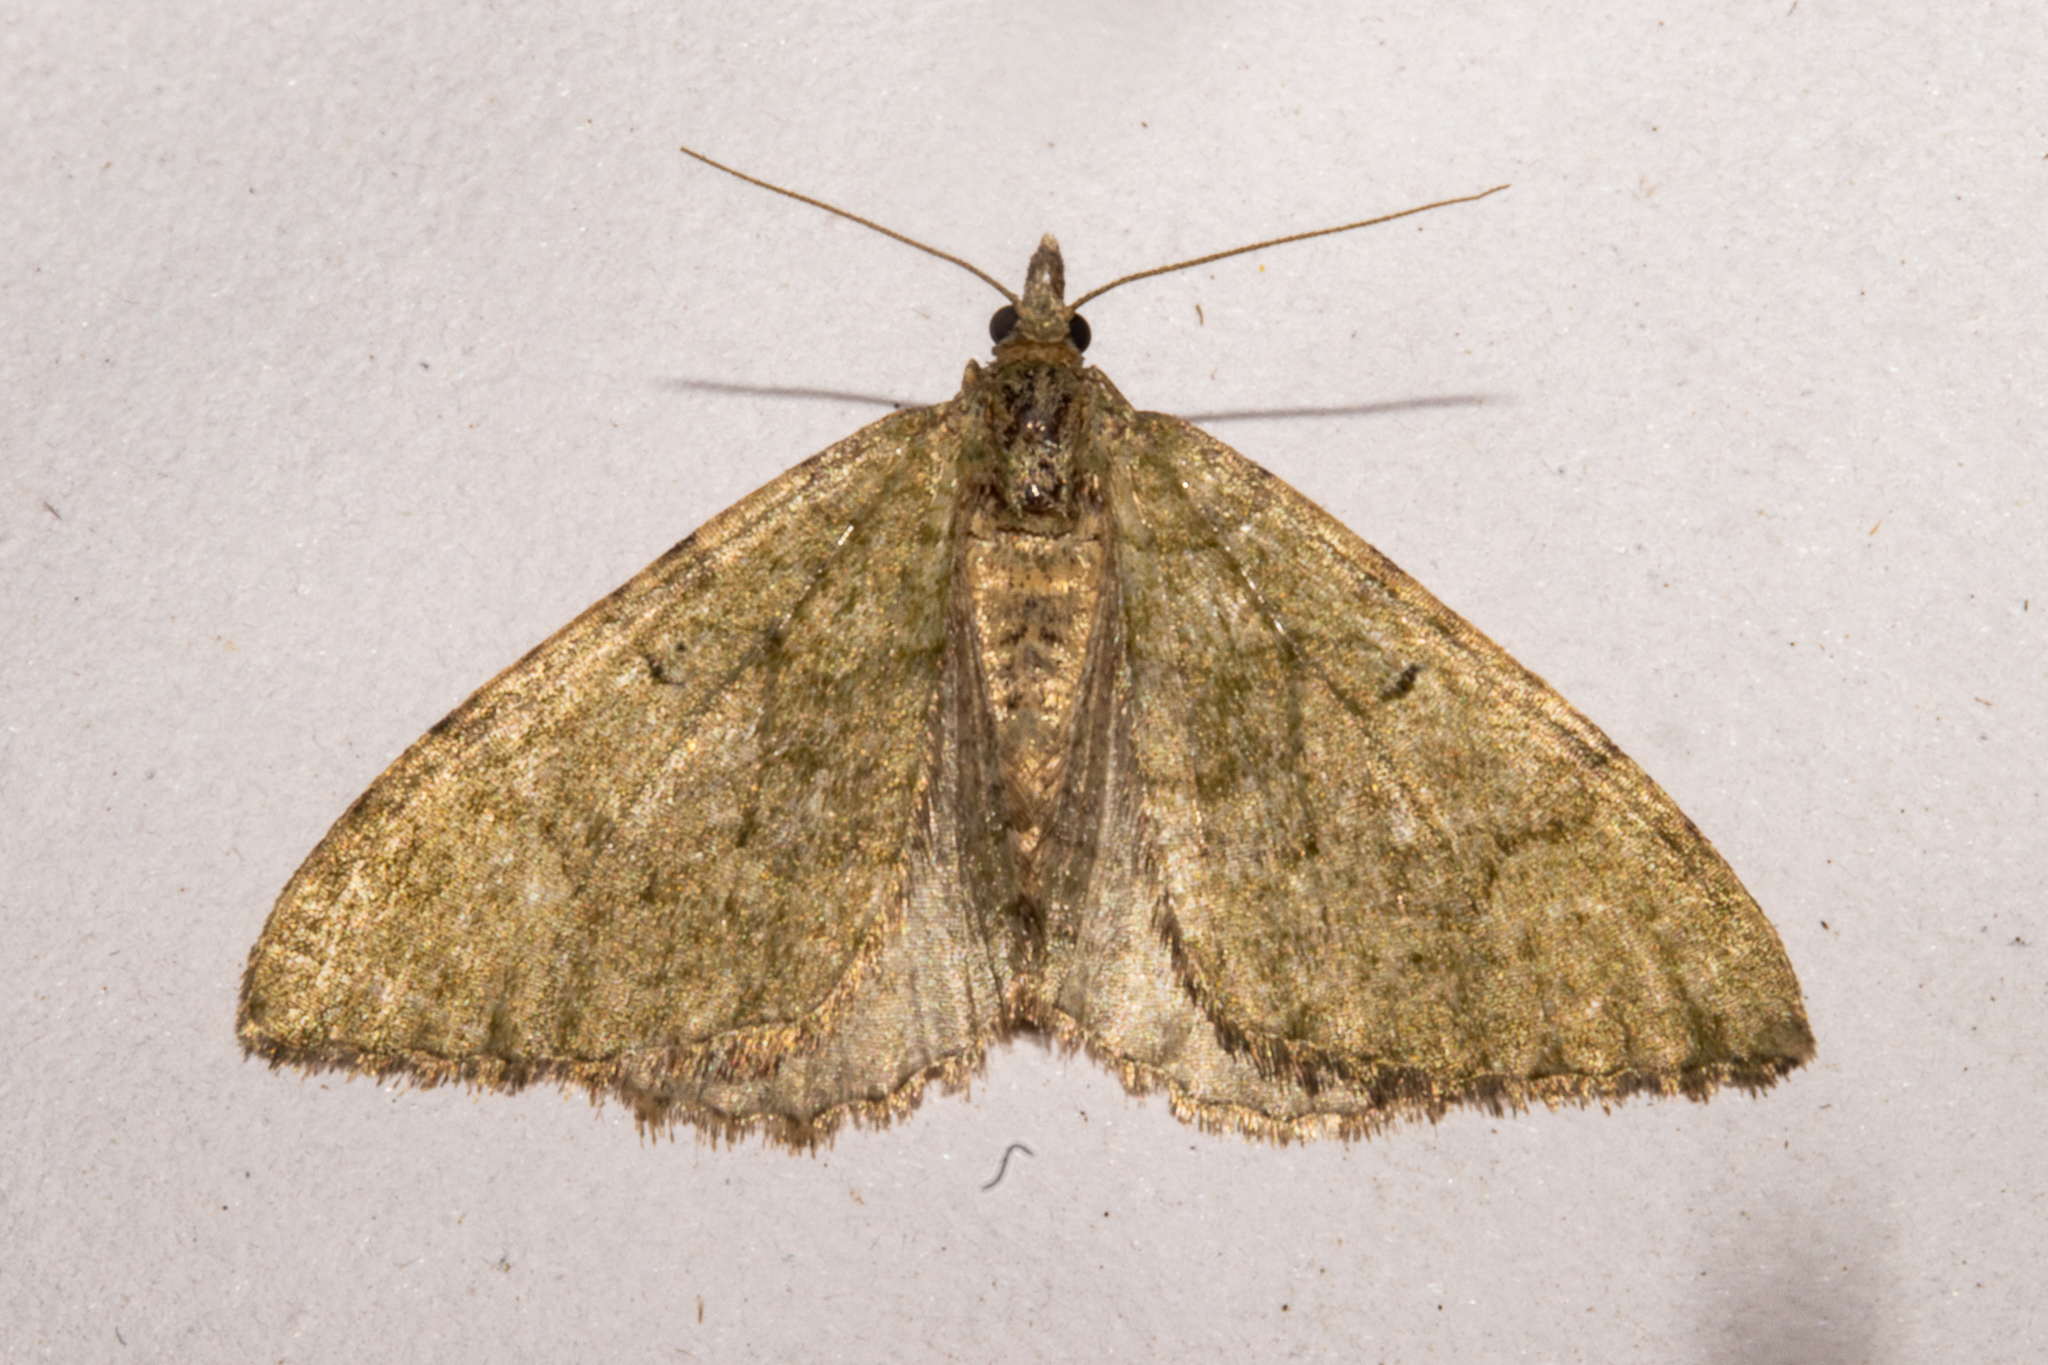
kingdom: Animalia
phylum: Arthropoda
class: Insecta
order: Lepidoptera
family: Geometridae
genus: Epyaxa
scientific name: Epyaxa rosearia
